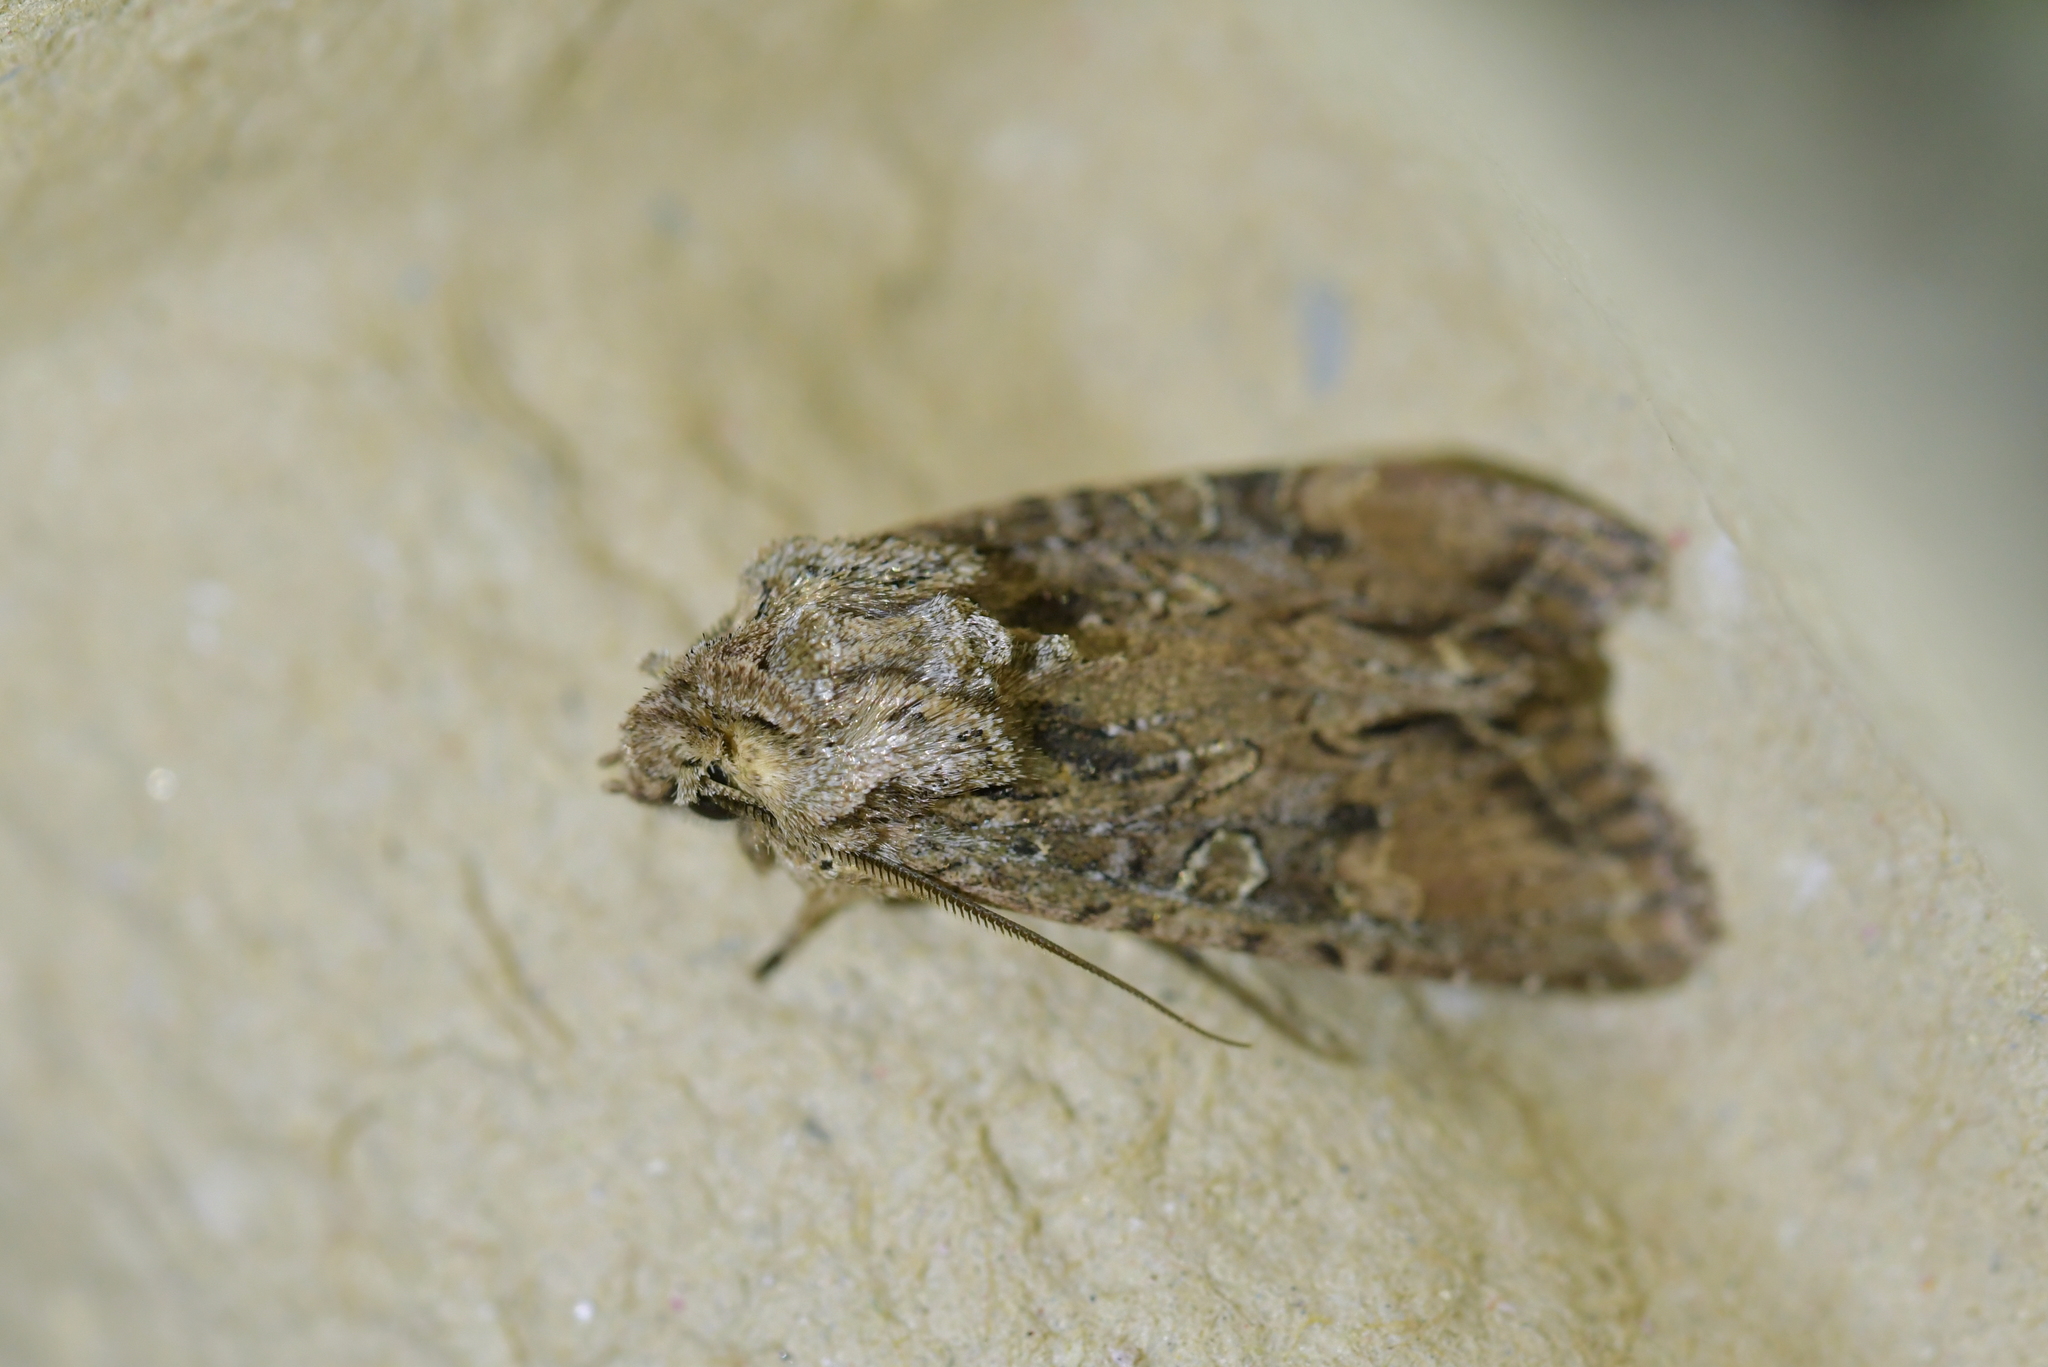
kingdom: Animalia
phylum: Arthropoda
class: Insecta
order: Lepidoptera
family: Noctuidae
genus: Ichneutica
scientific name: Ichneutica mutans
